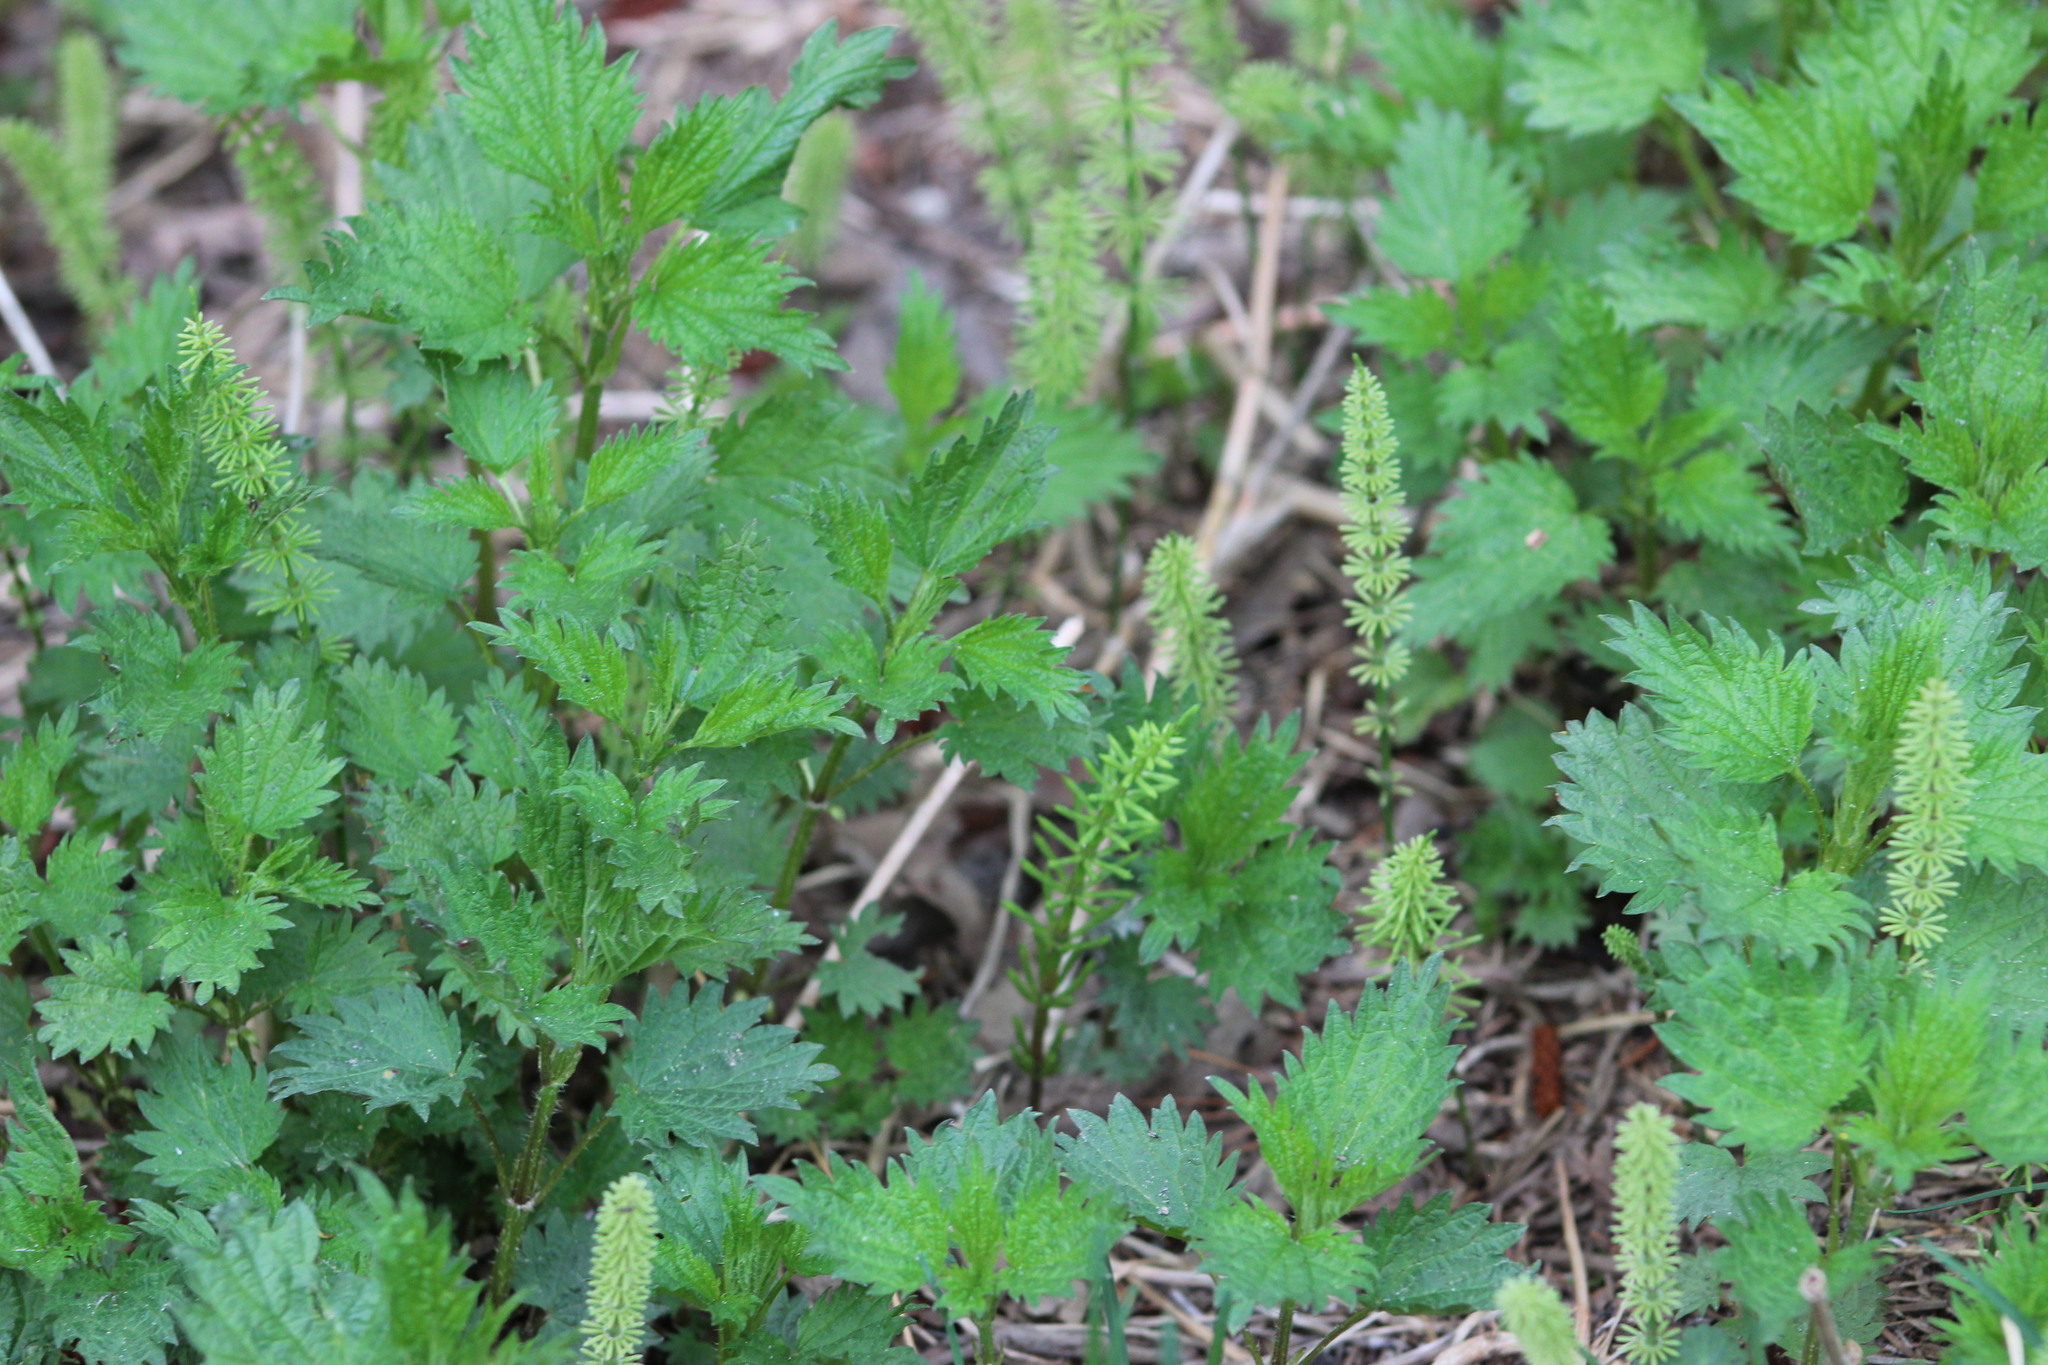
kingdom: Plantae
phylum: Tracheophyta
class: Magnoliopsida
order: Rosales
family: Urticaceae
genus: Urtica
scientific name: Urtica dioica
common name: Common nettle
